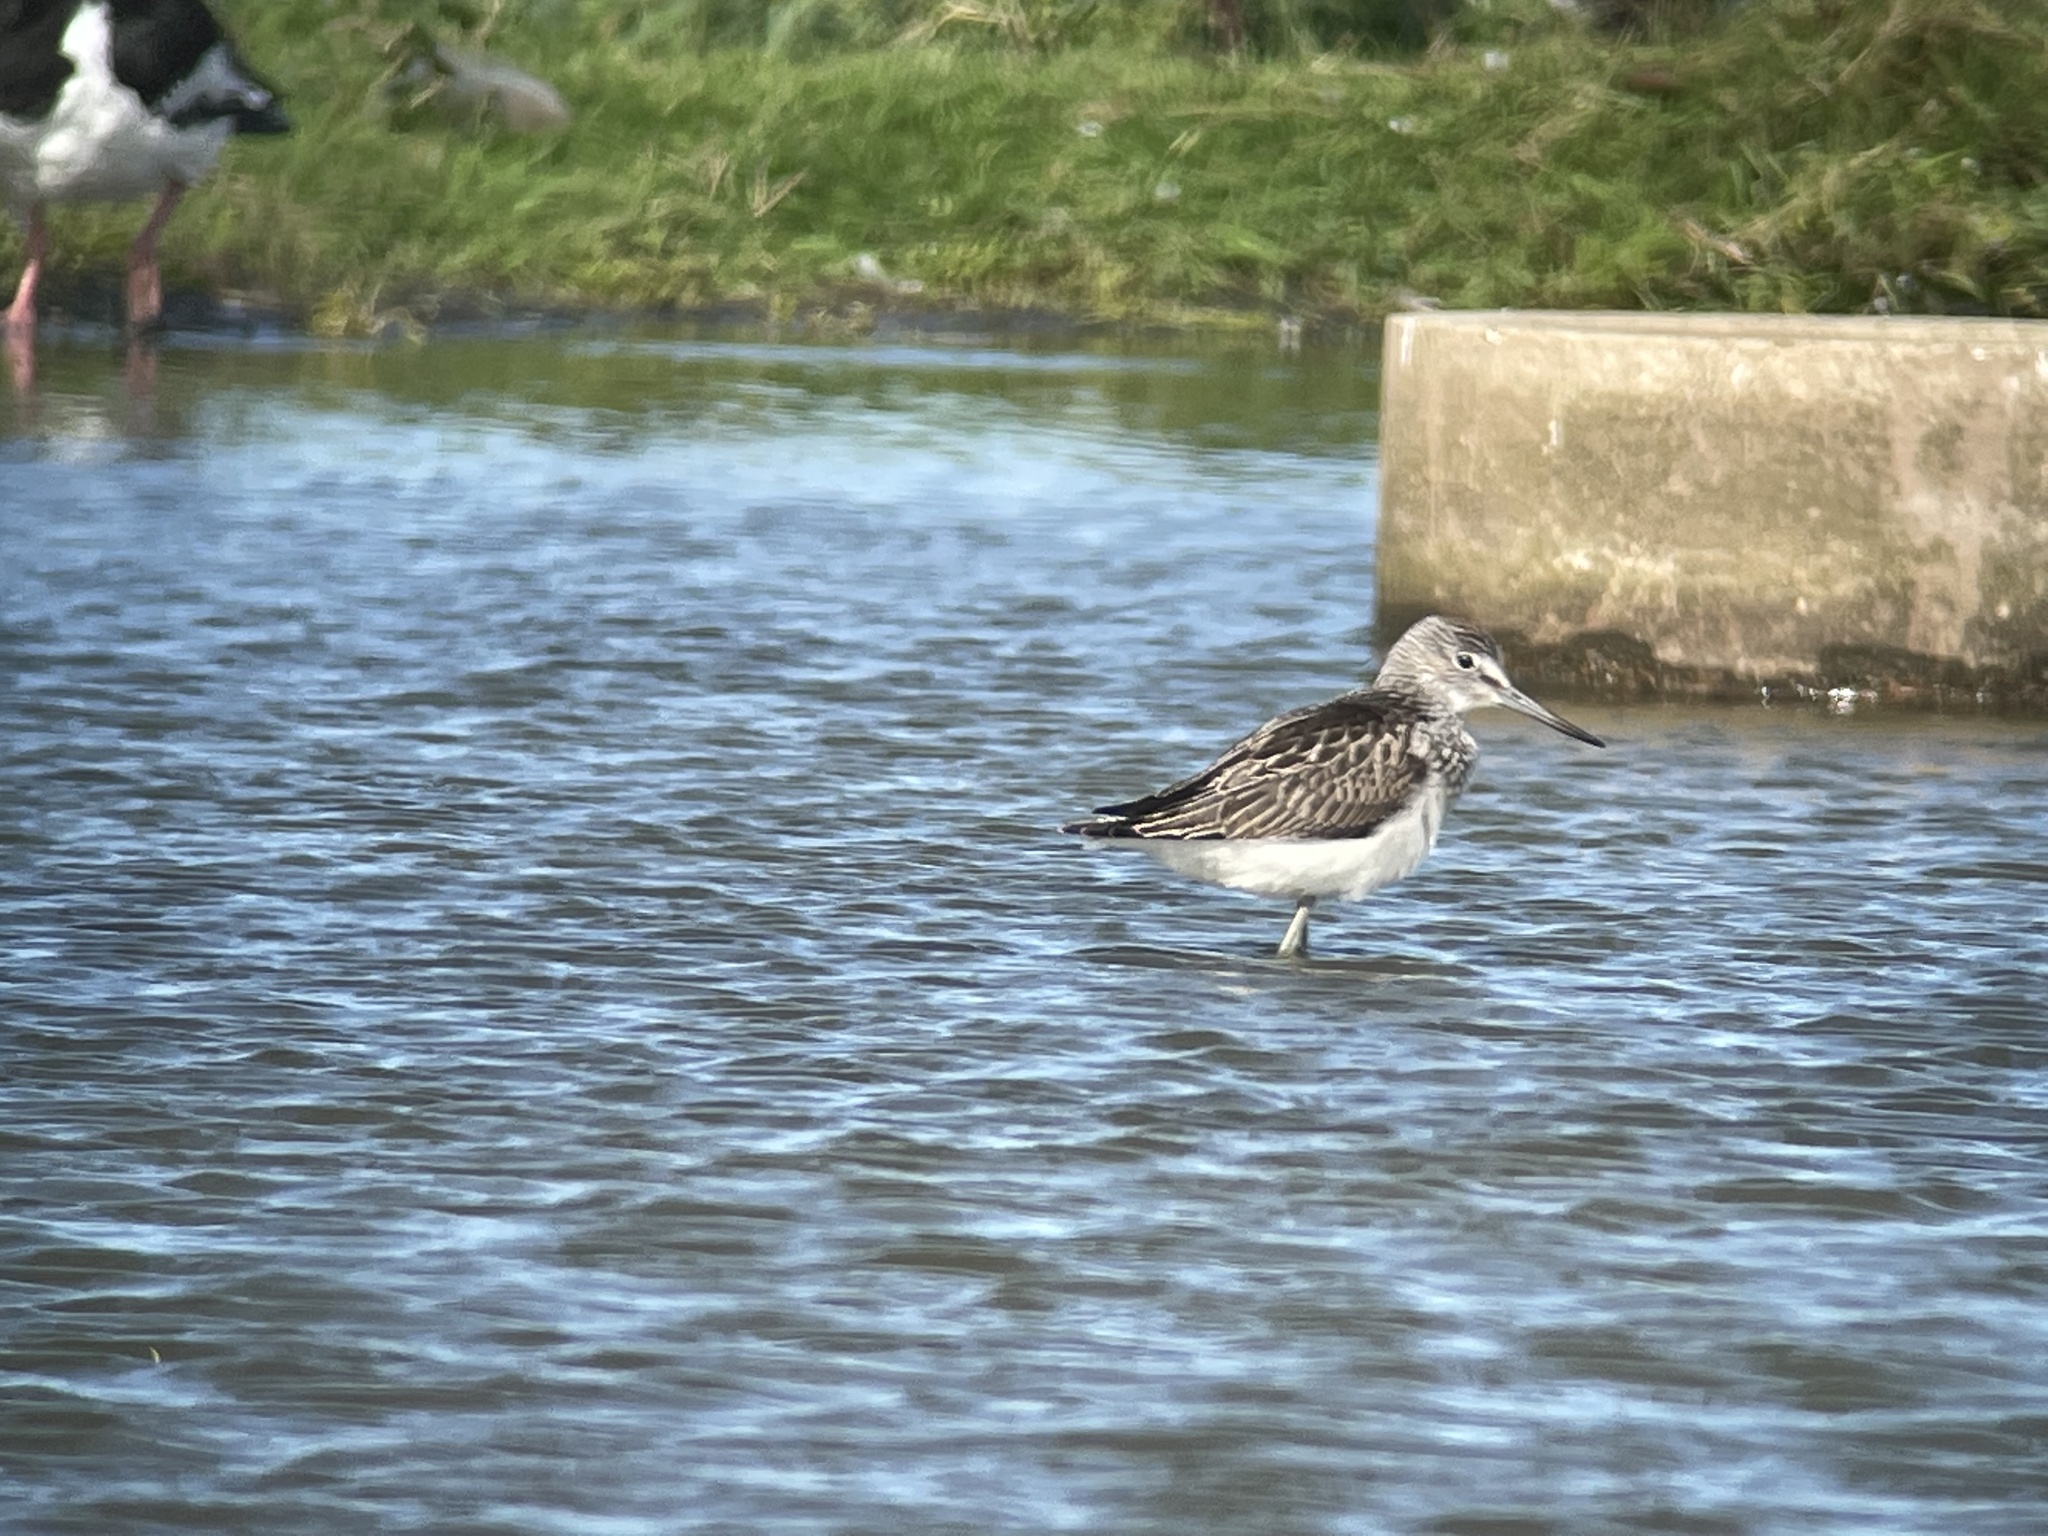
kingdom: Animalia
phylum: Chordata
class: Aves
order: Charadriiformes
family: Scolopacidae
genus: Tringa
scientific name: Tringa nebularia
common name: Common greenshank
